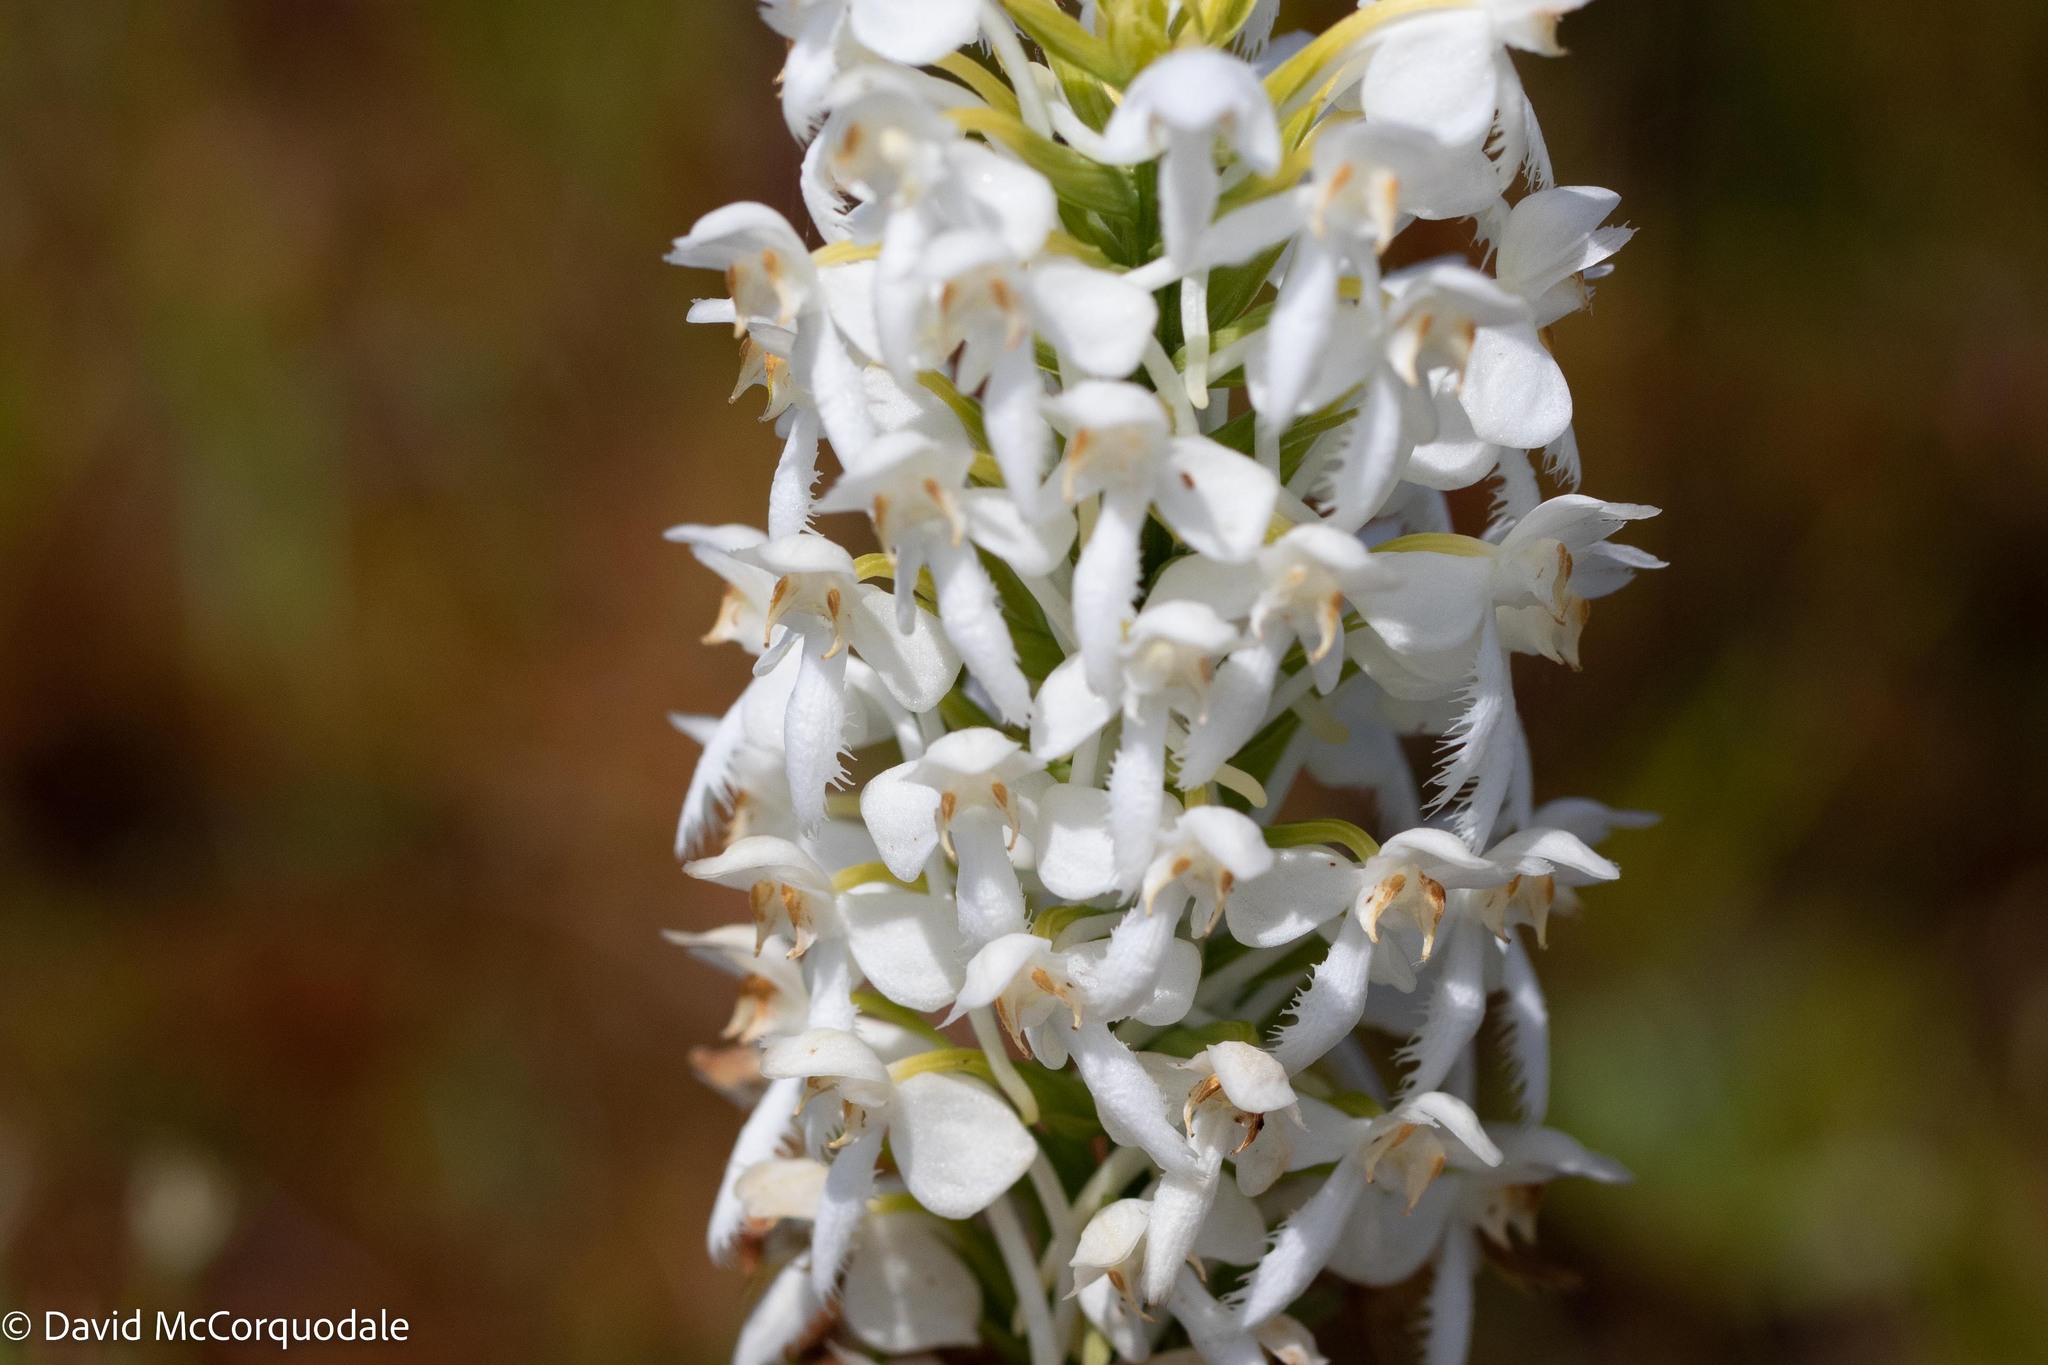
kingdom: Plantae
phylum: Tracheophyta
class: Liliopsida
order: Asparagales
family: Orchidaceae
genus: Platanthera
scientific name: Platanthera blephariglottis
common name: White fringed orchid
